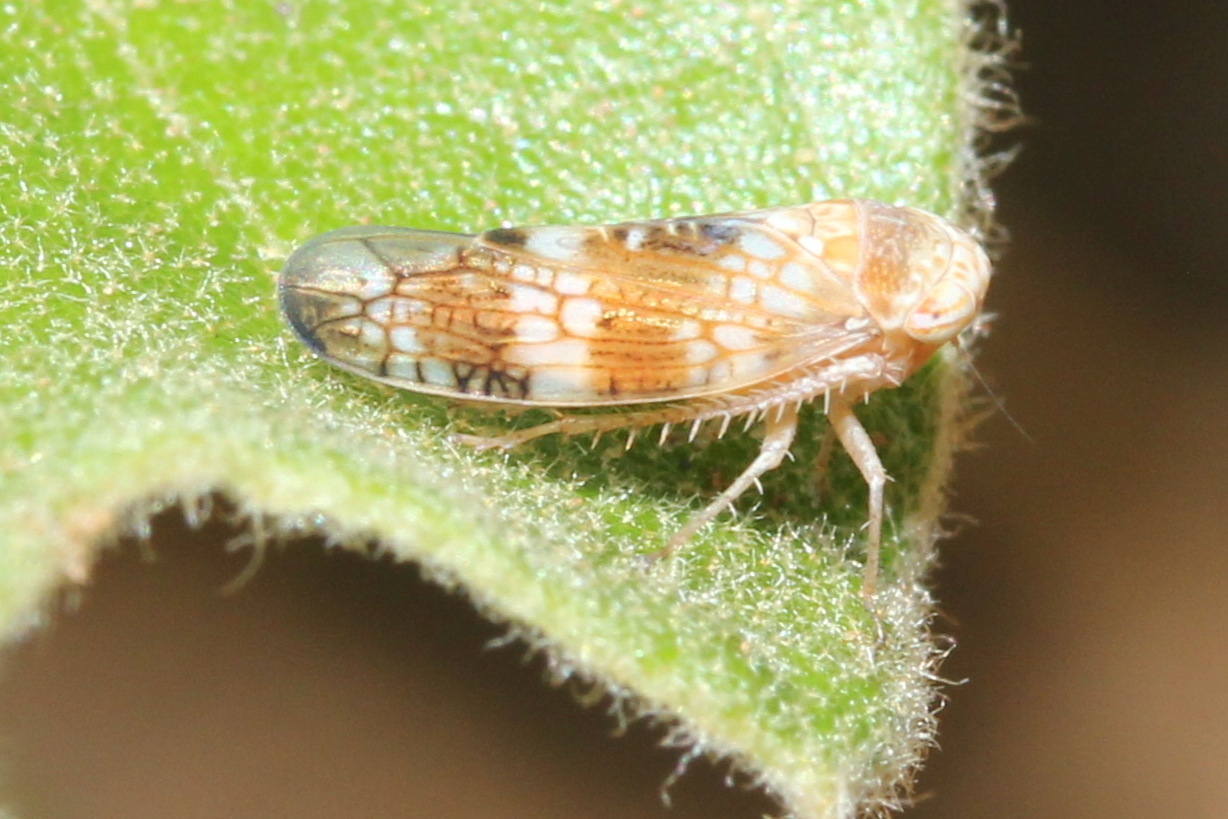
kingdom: Animalia
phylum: Arthropoda
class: Insecta
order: Hemiptera
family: Cicadellidae
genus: Aligia
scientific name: Aligia meridiana
